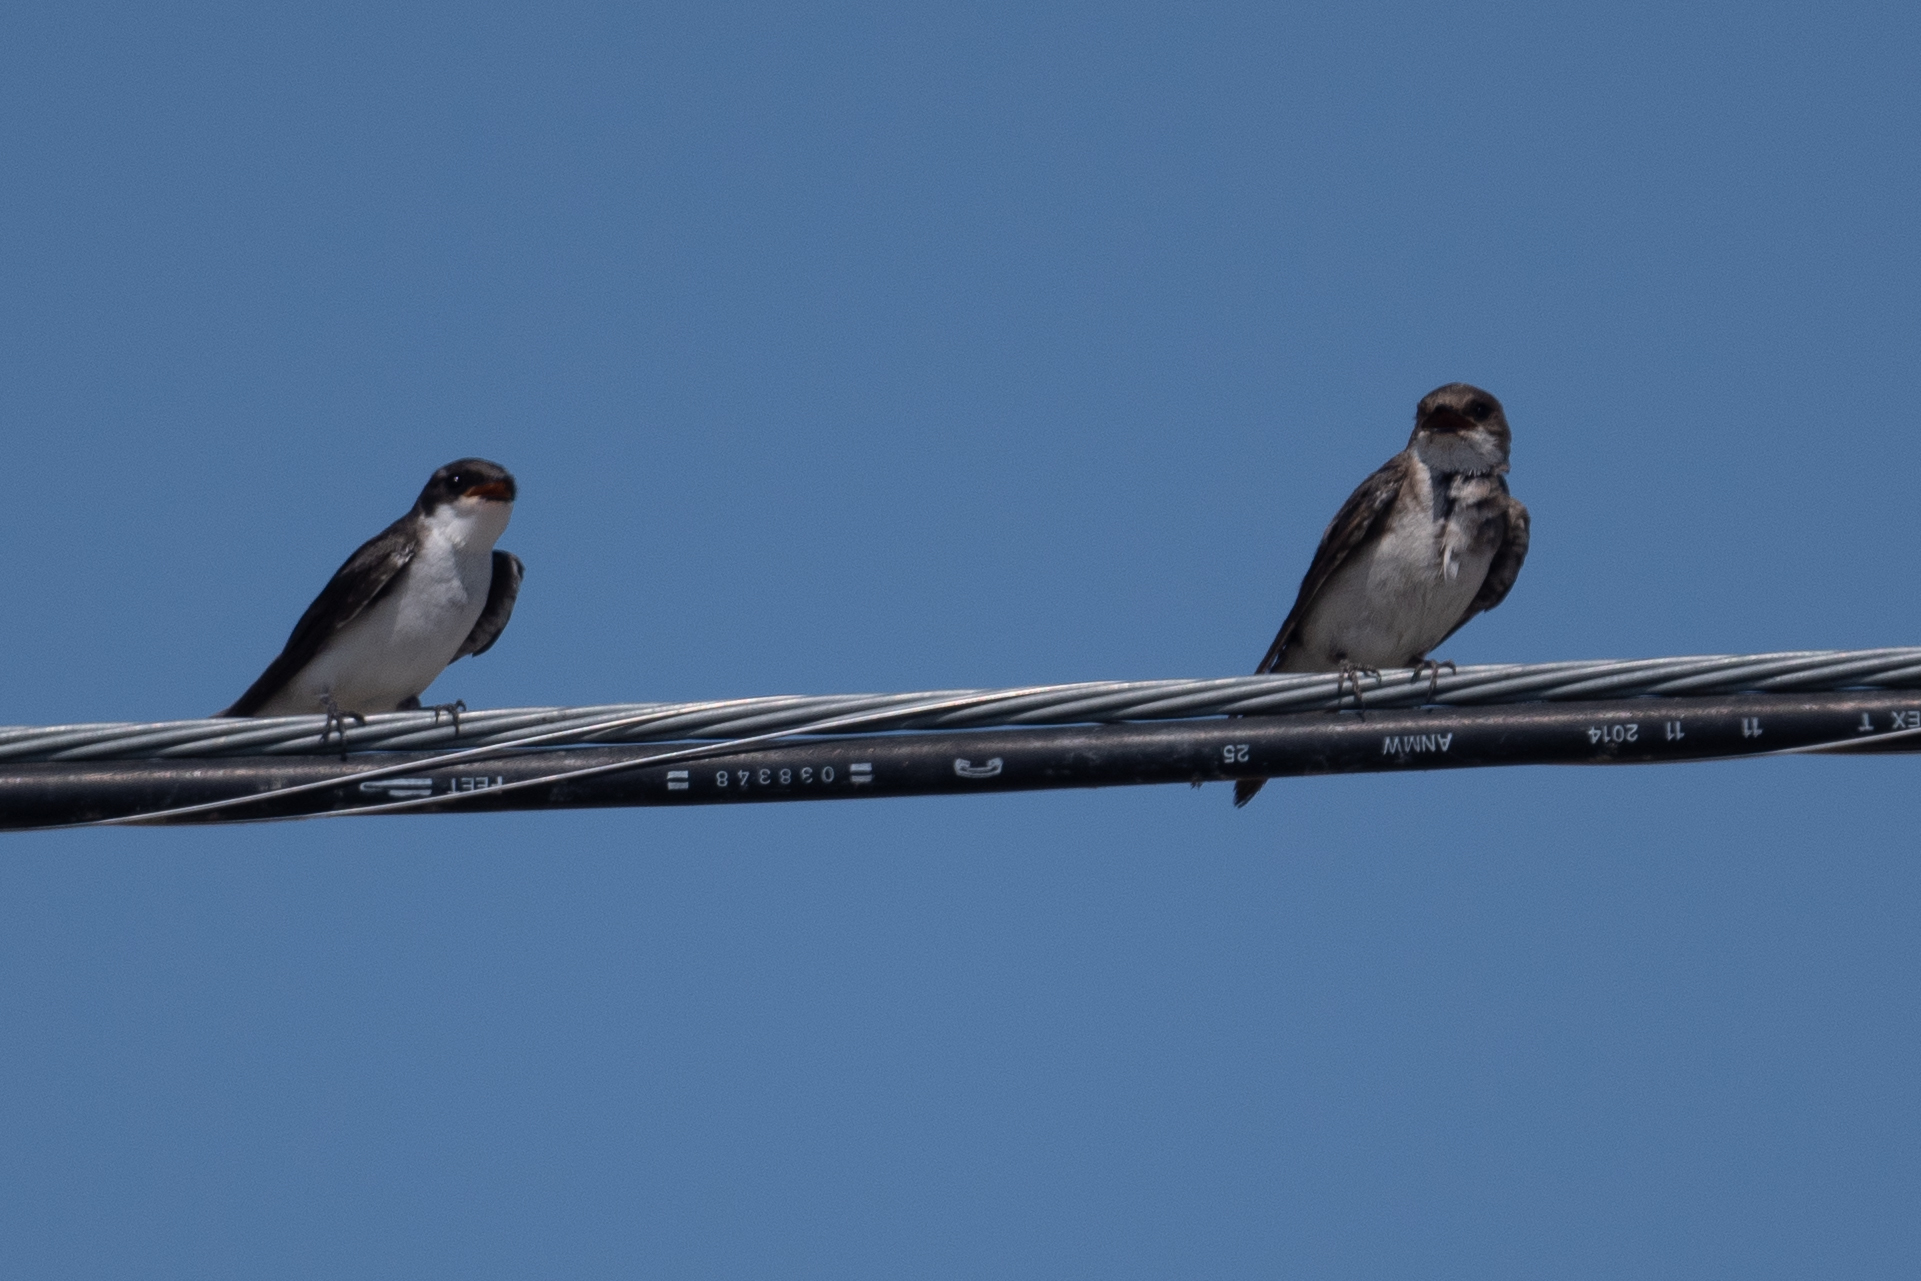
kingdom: Animalia
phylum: Chordata
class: Aves
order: Passeriformes
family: Hirundinidae
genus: Tachycineta
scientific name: Tachycineta bicolor
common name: Tree swallow
